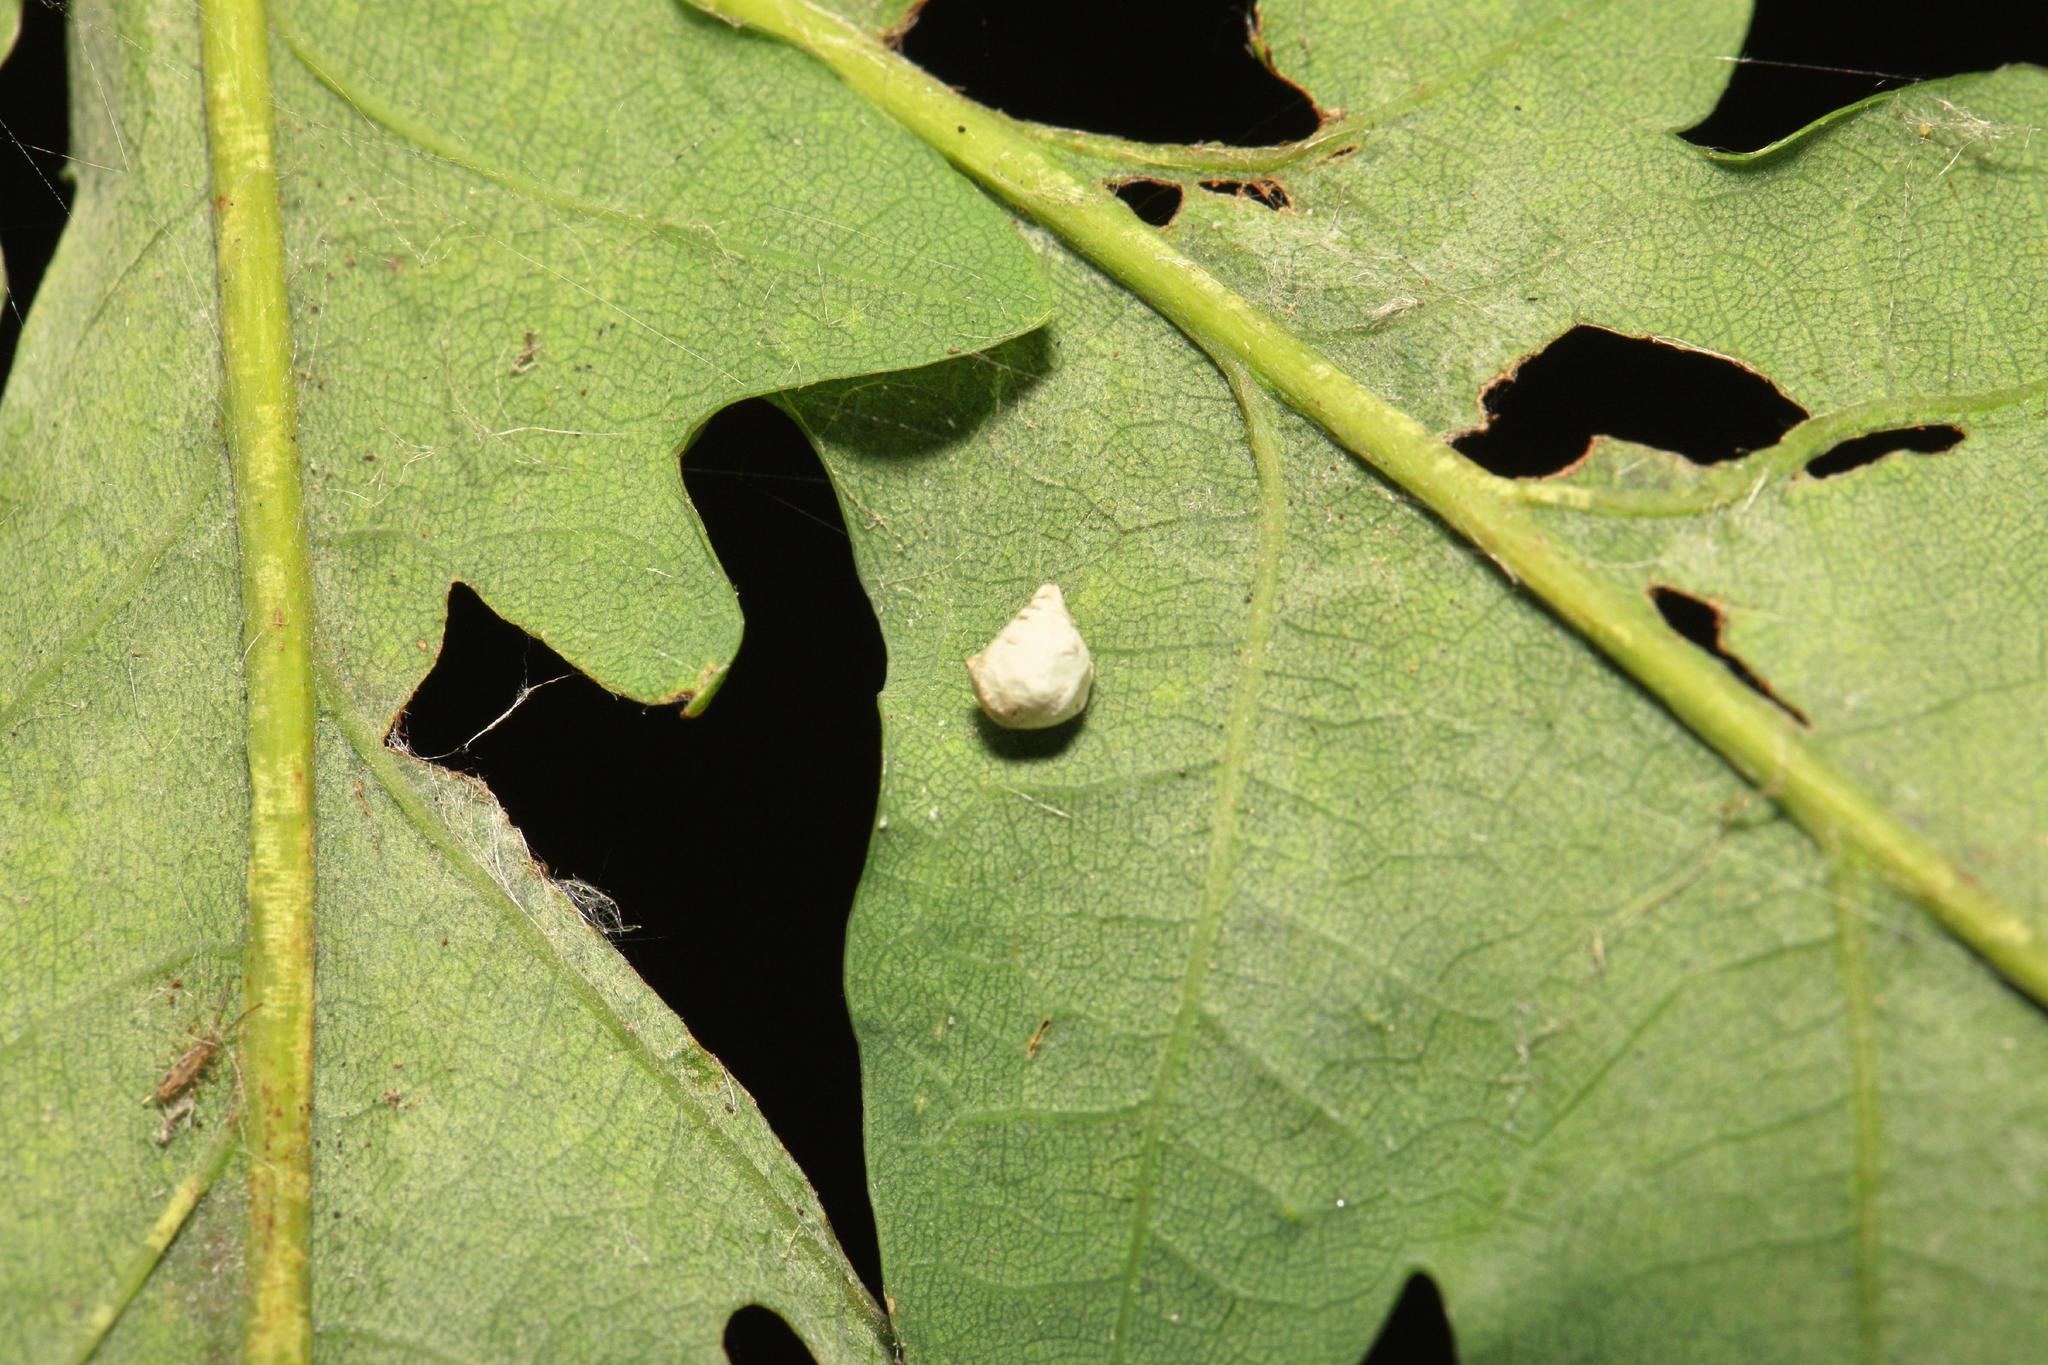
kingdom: Animalia
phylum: Arthropoda
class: Arachnida
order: Araneae
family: Theridiidae
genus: Paidiscura
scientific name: Paidiscura pallens
